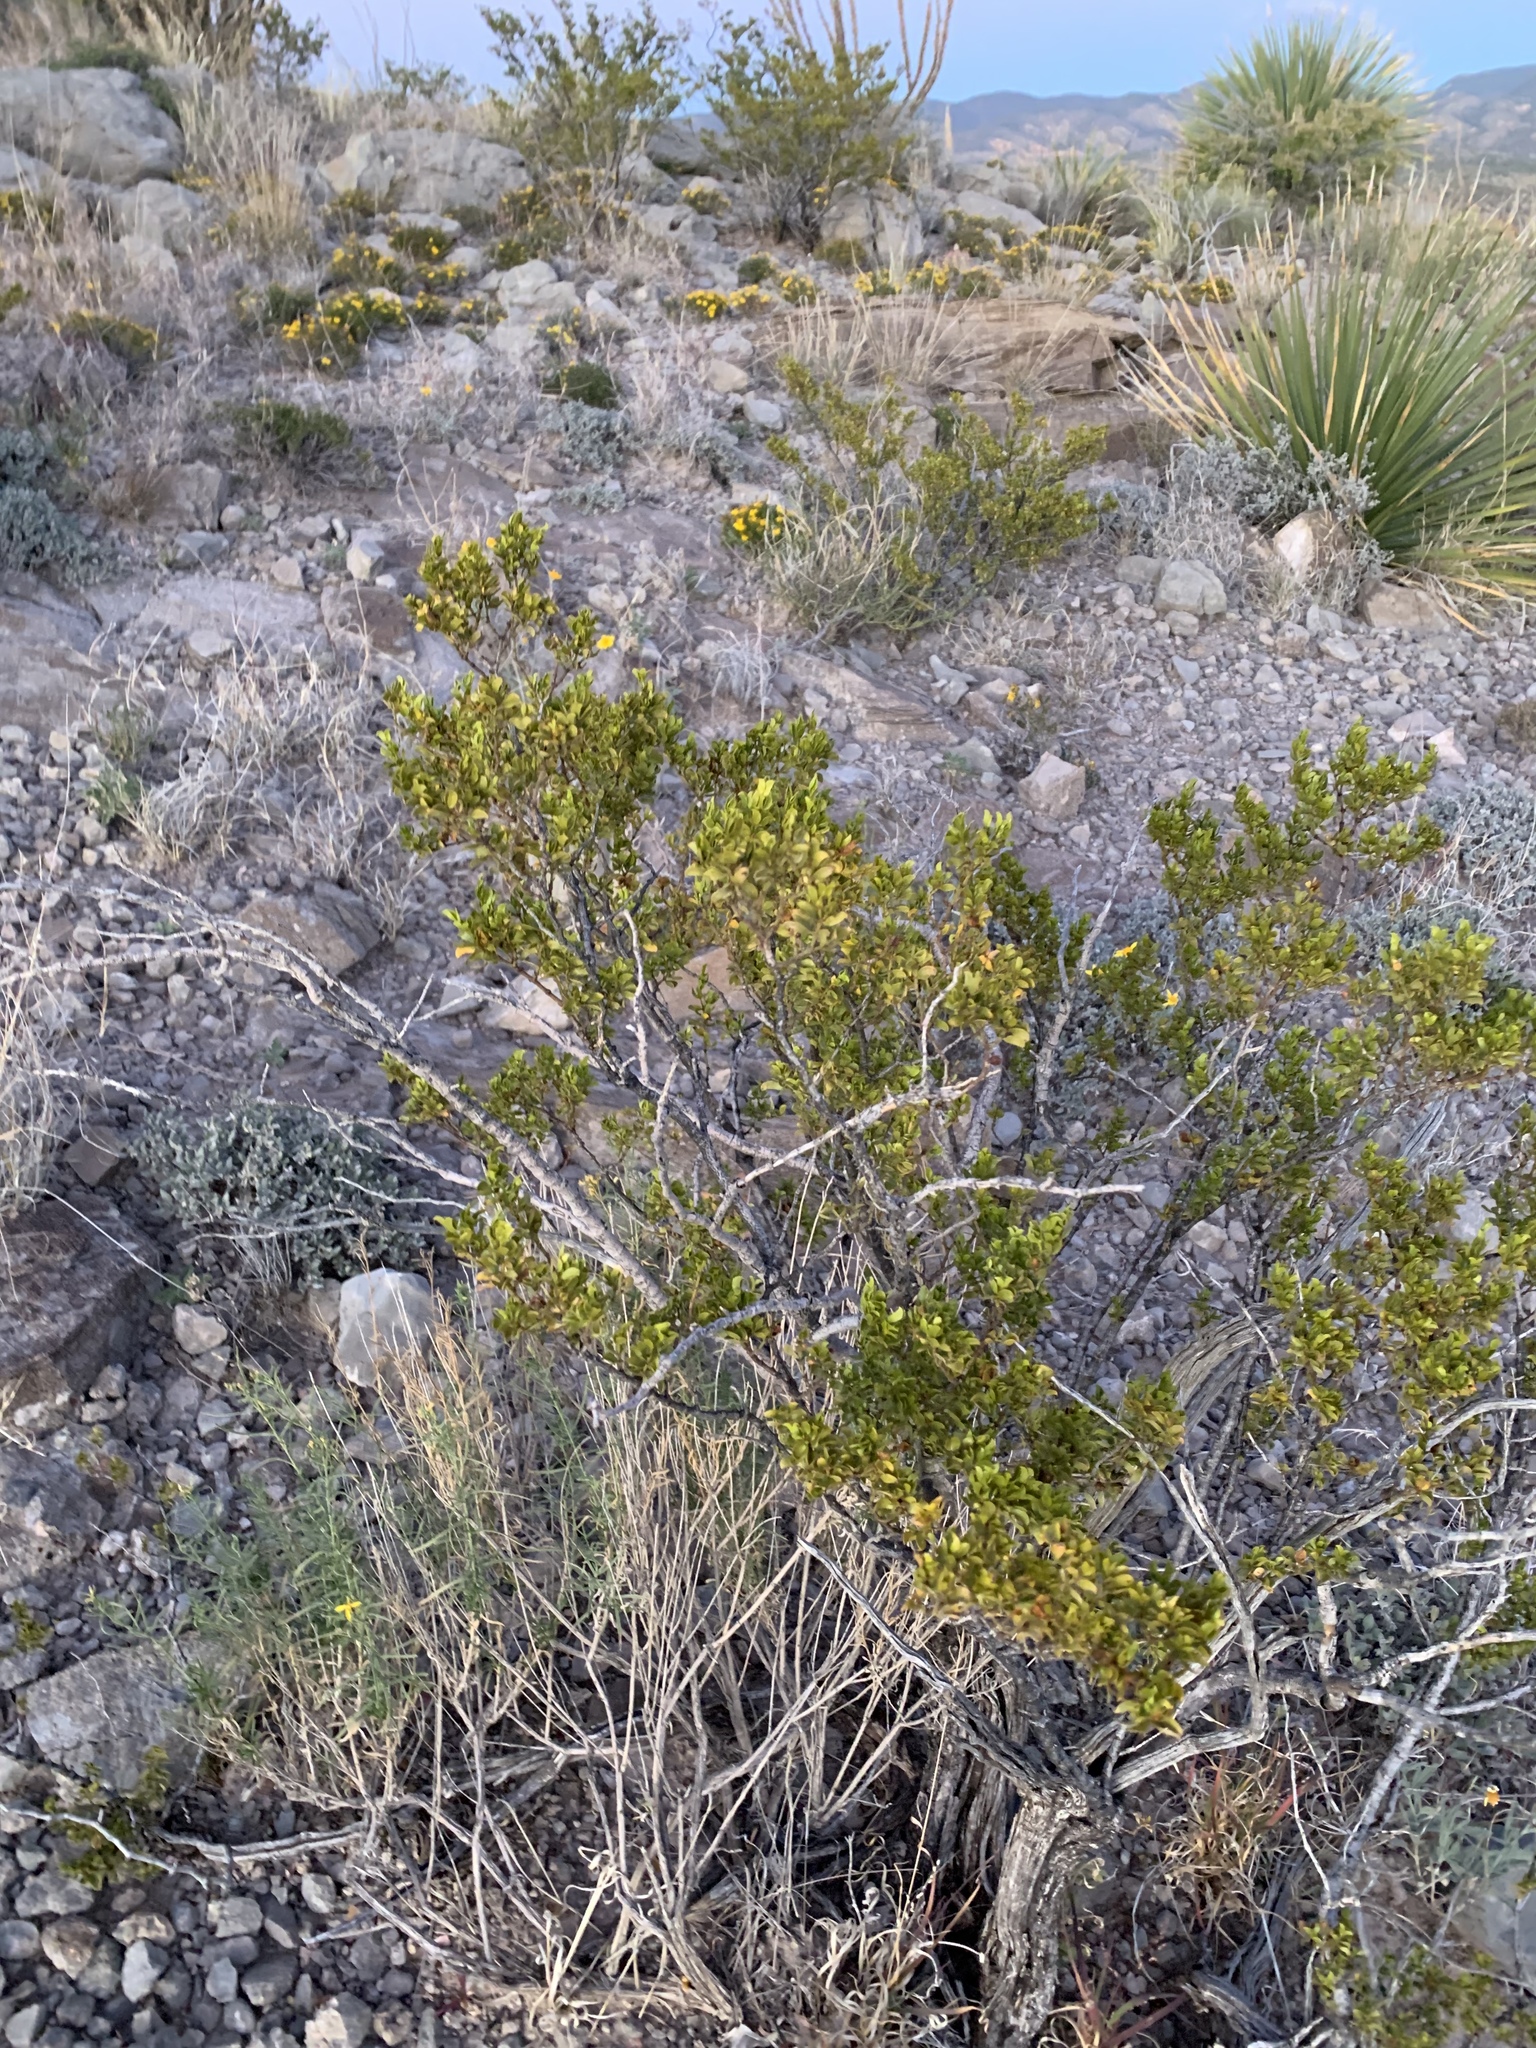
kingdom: Plantae
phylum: Tracheophyta
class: Magnoliopsida
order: Zygophyllales
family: Zygophyllaceae
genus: Larrea
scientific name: Larrea tridentata
